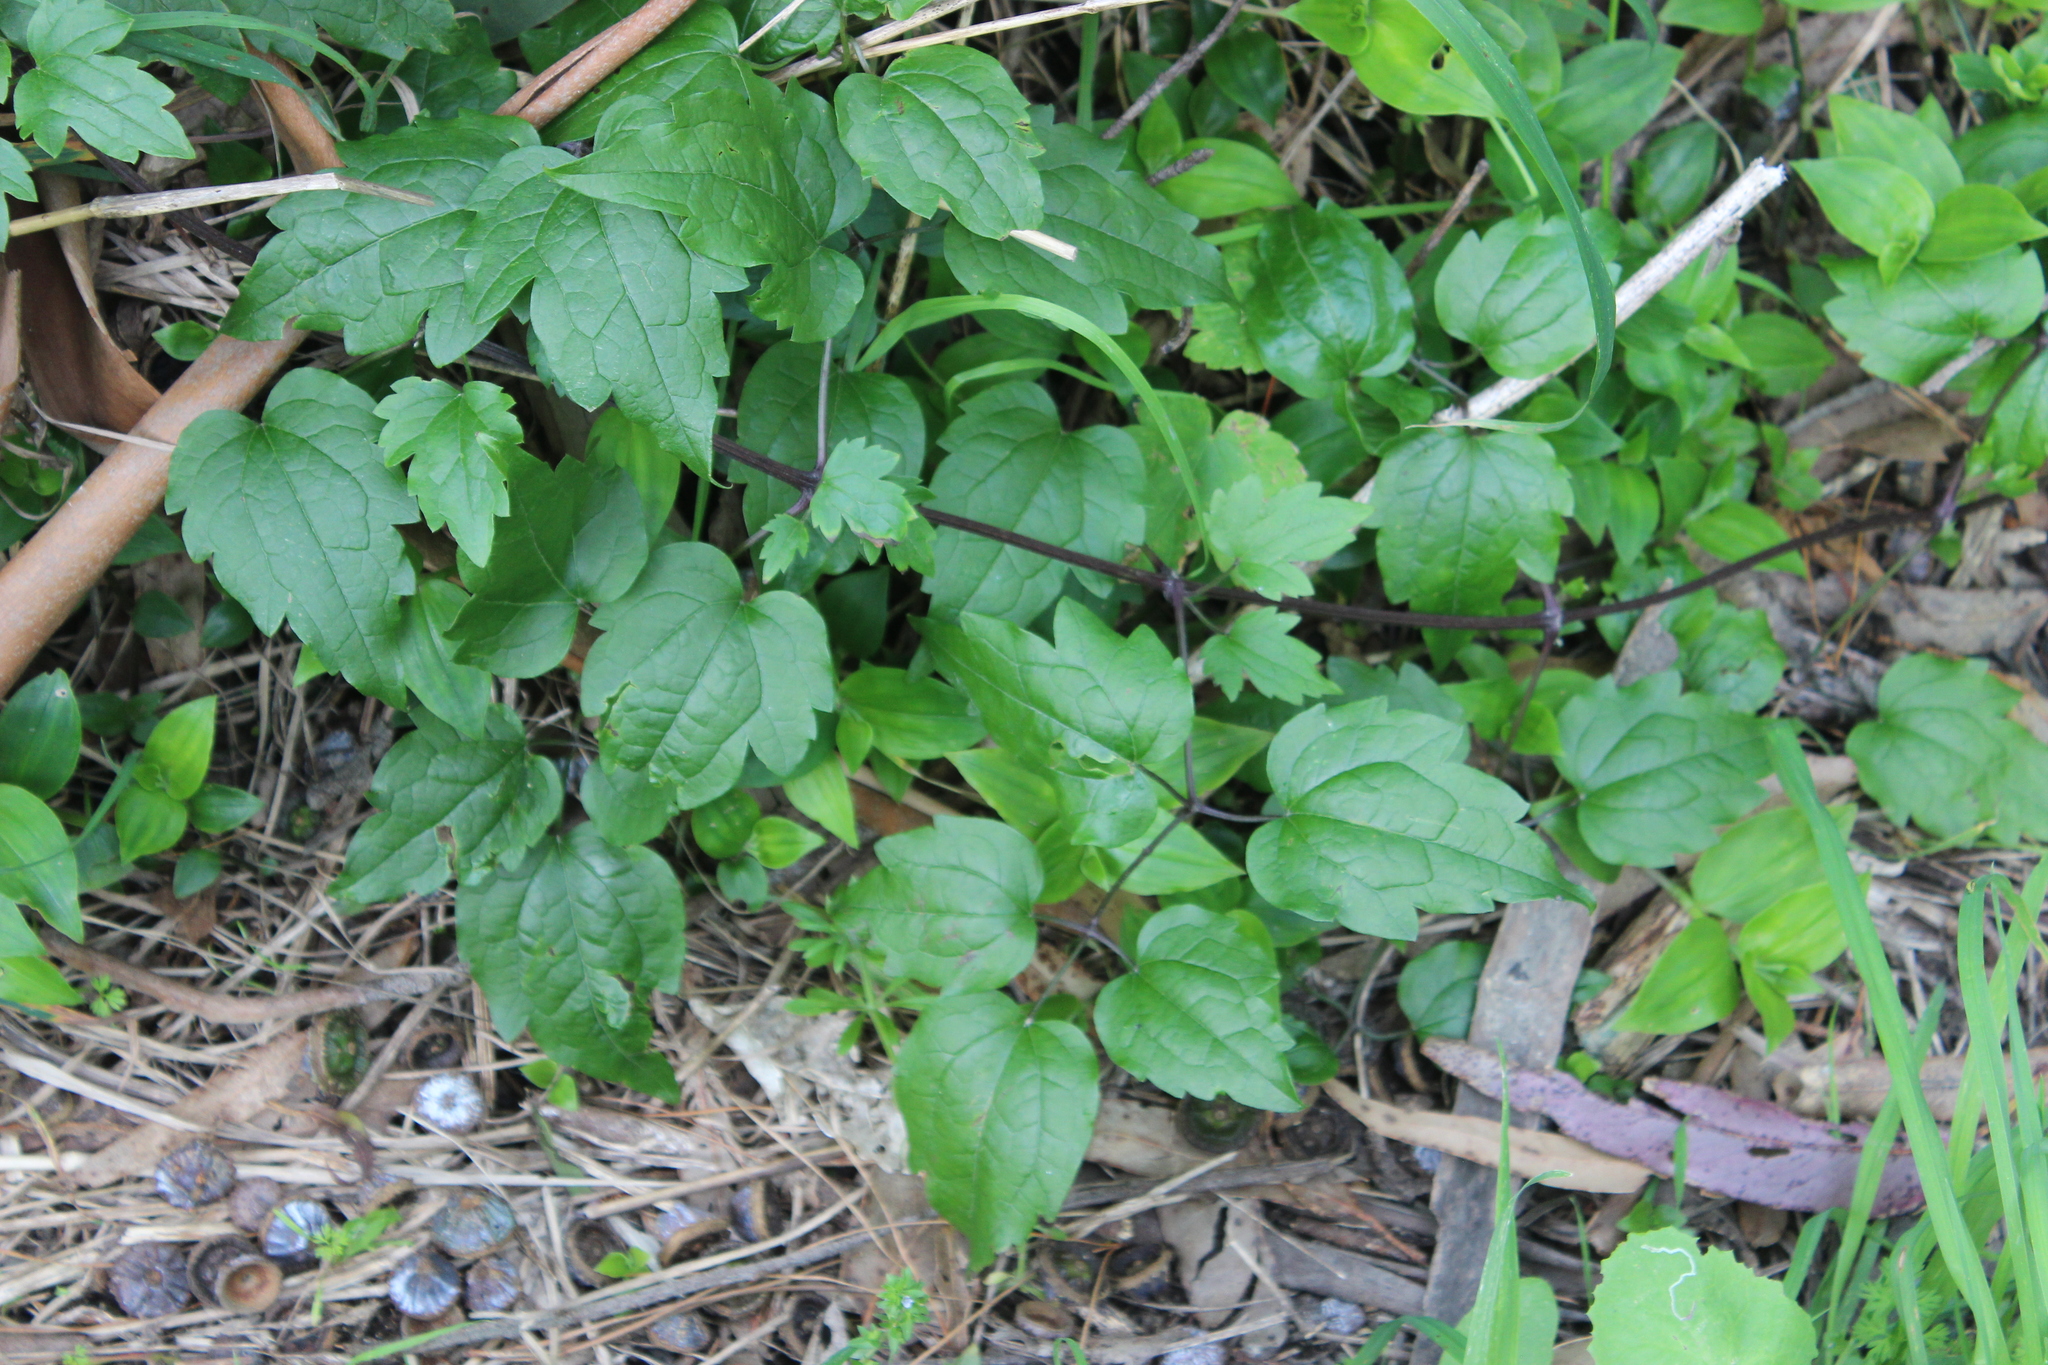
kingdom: Plantae
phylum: Tracheophyta
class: Magnoliopsida
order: Ranunculales
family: Ranunculaceae
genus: Clematis
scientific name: Clematis vitalba
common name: Evergreen clematis
